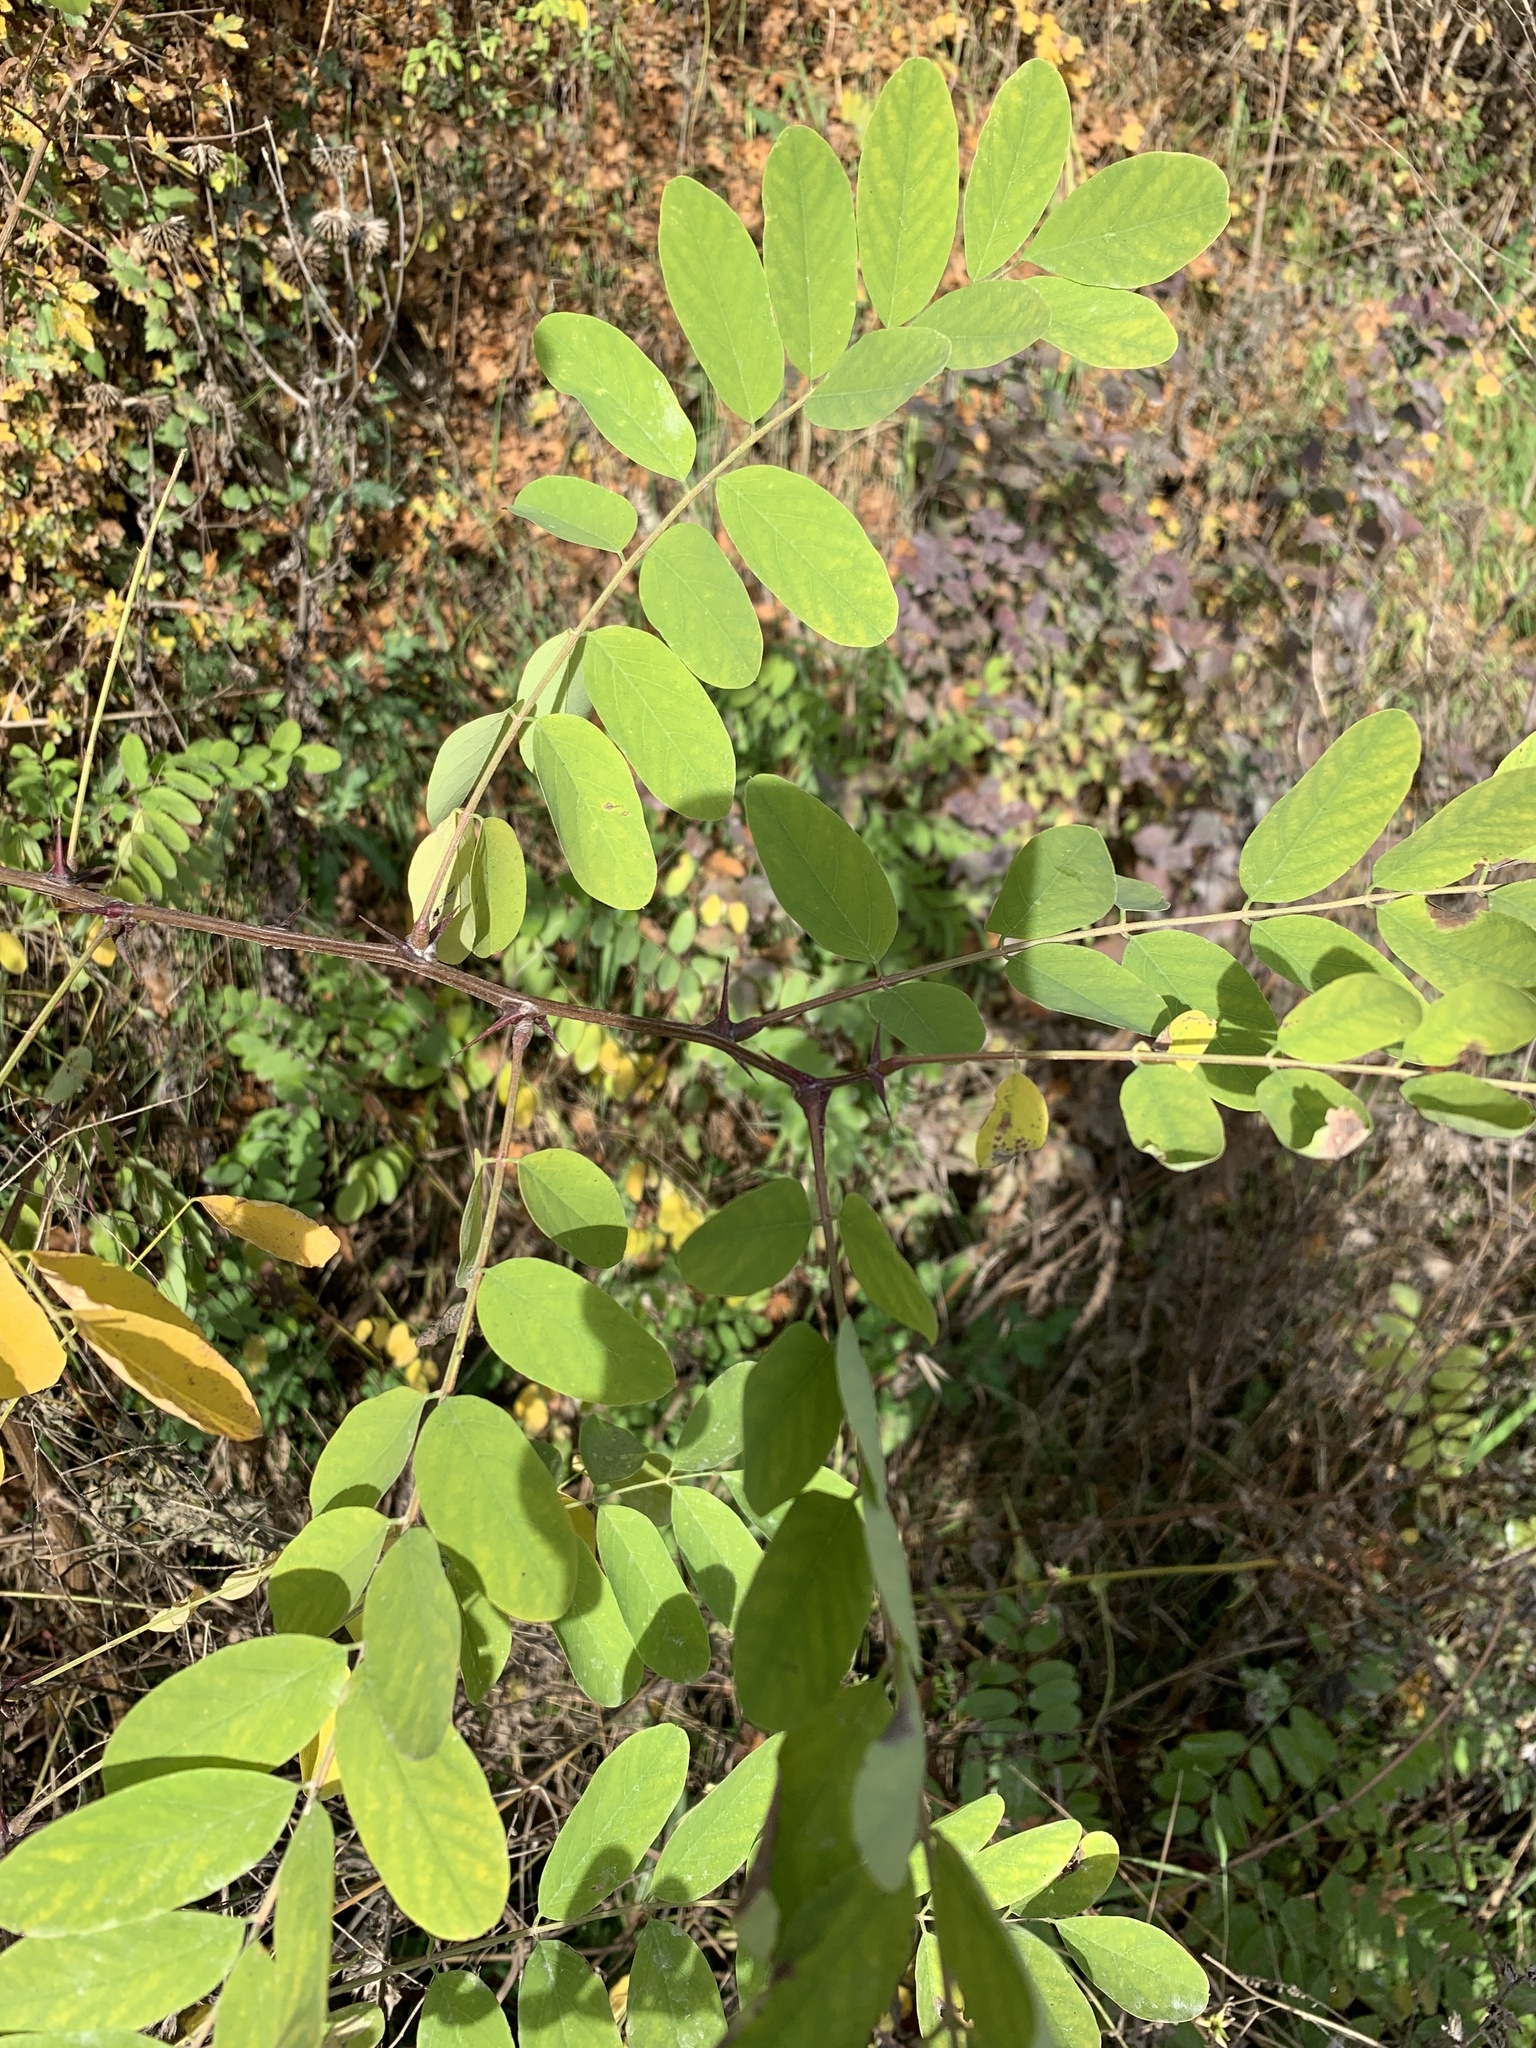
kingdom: Plantae
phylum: Tracheophyta
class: Magnoliopsida
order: Fabales
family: Fabaceae
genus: Robinia
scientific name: Robinia pseudoacacia
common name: Black locust
